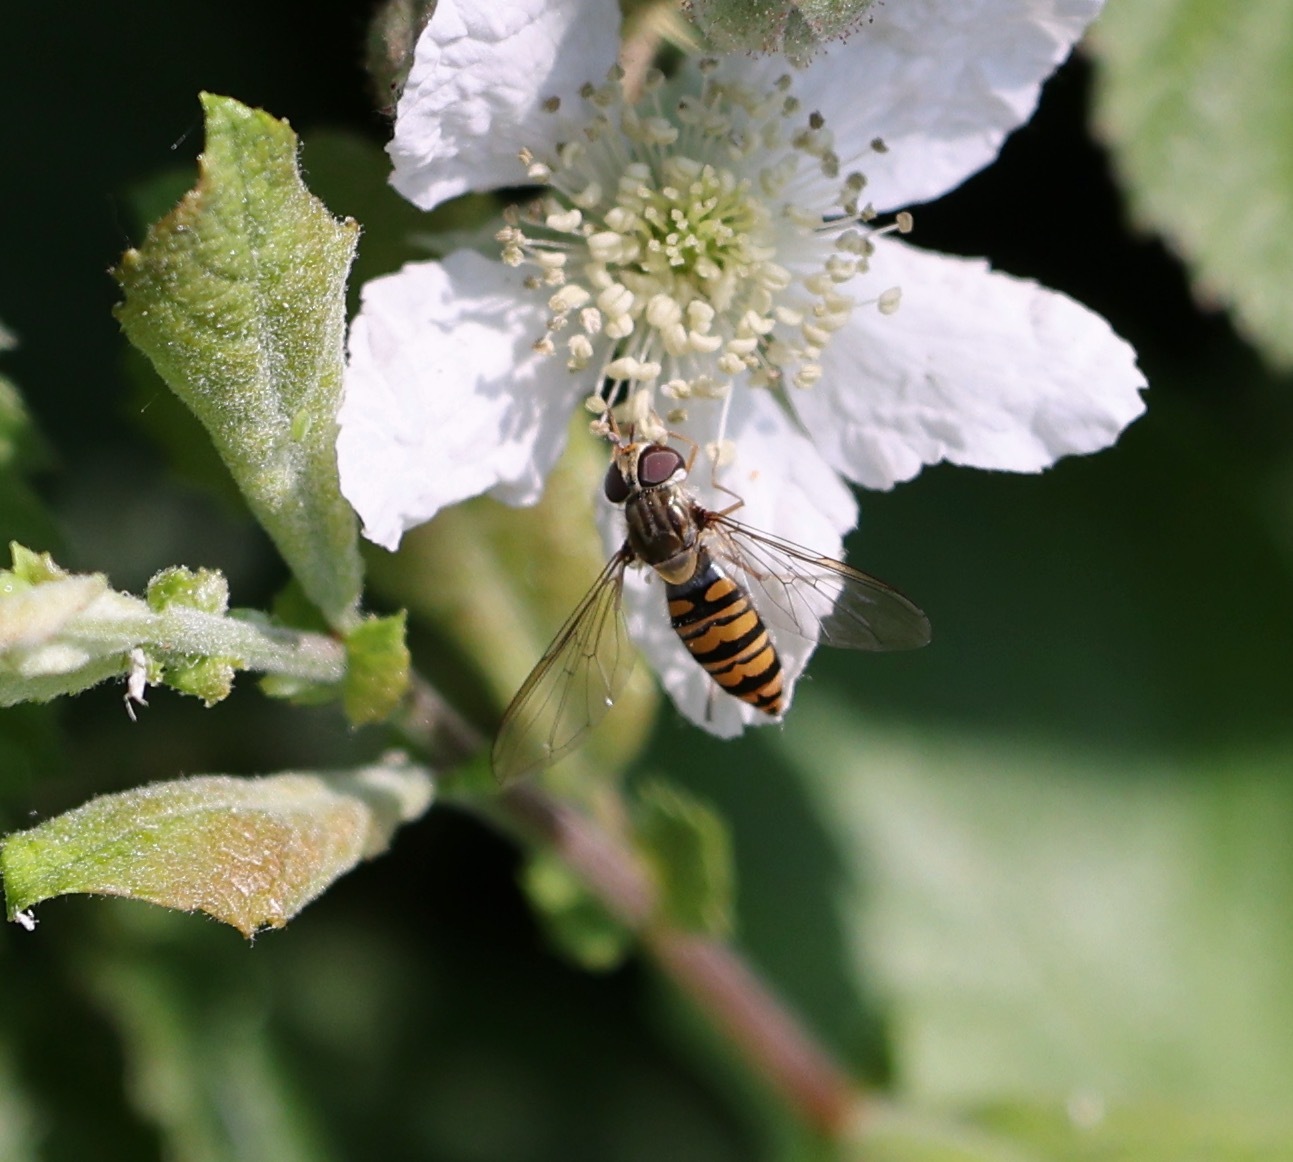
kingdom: Animalia
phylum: Arthropoda
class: Insecta
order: Diptera
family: Syrphidae
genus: Episyrphus
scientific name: Episyrphus balteatus
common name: Marmalade hoverfly
